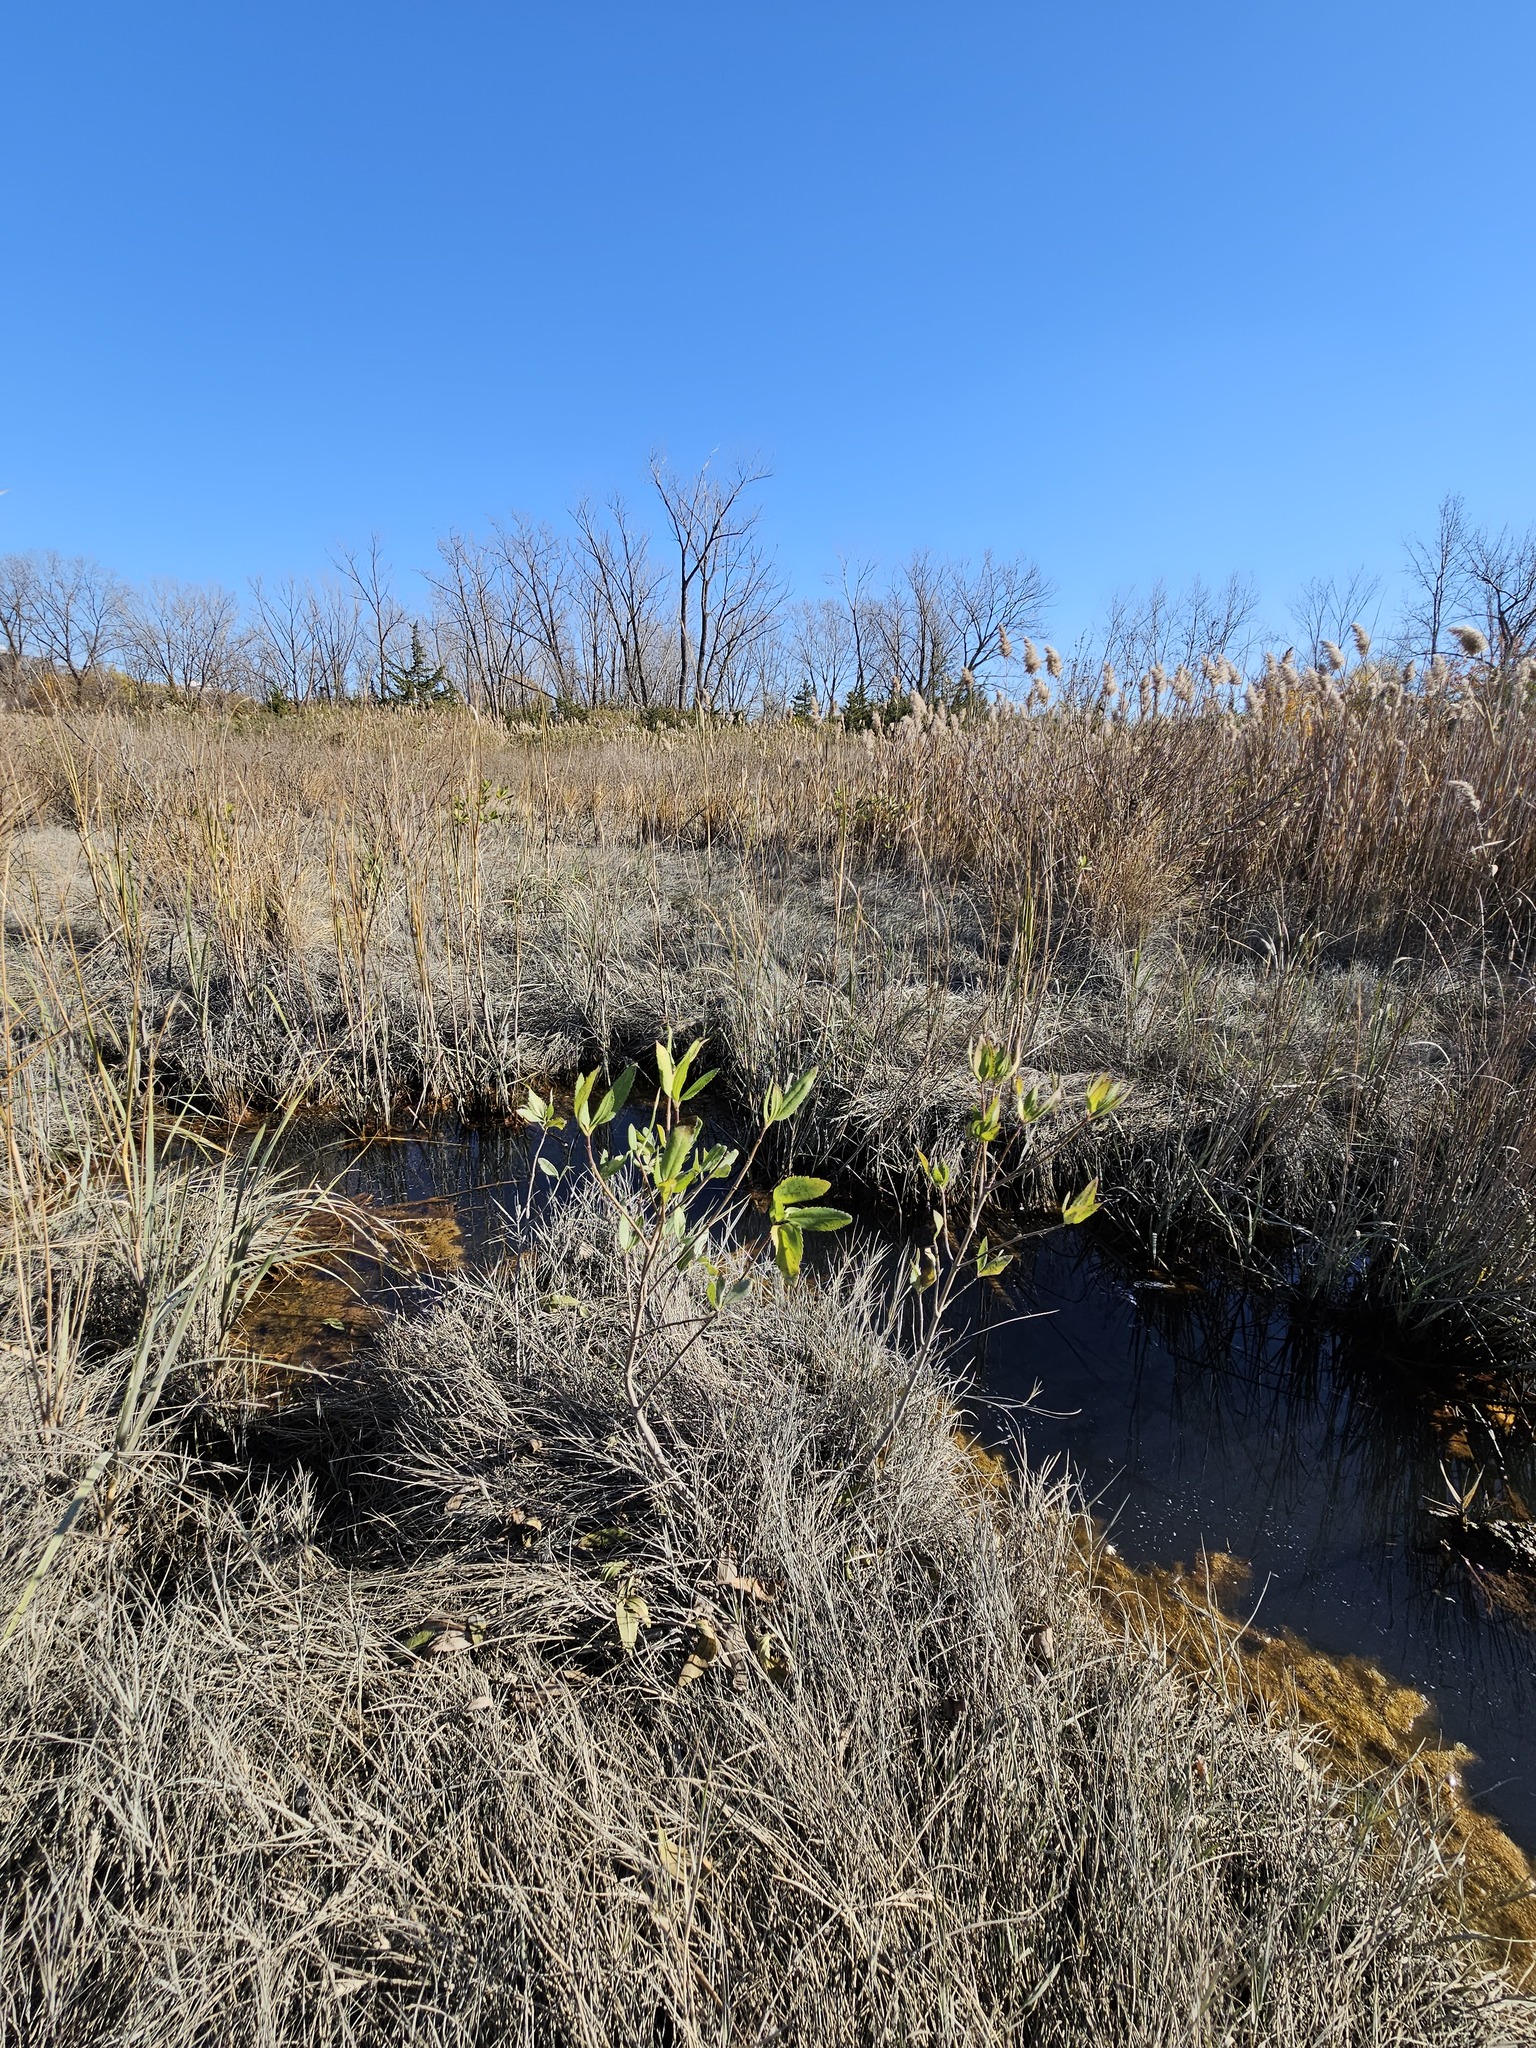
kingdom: Plantae
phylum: Tracheophyta
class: Magnoliopsida
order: Asterales
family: Asteraceae
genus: Iva
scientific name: Iva frutescens
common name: Big-leaved marsh-elder
